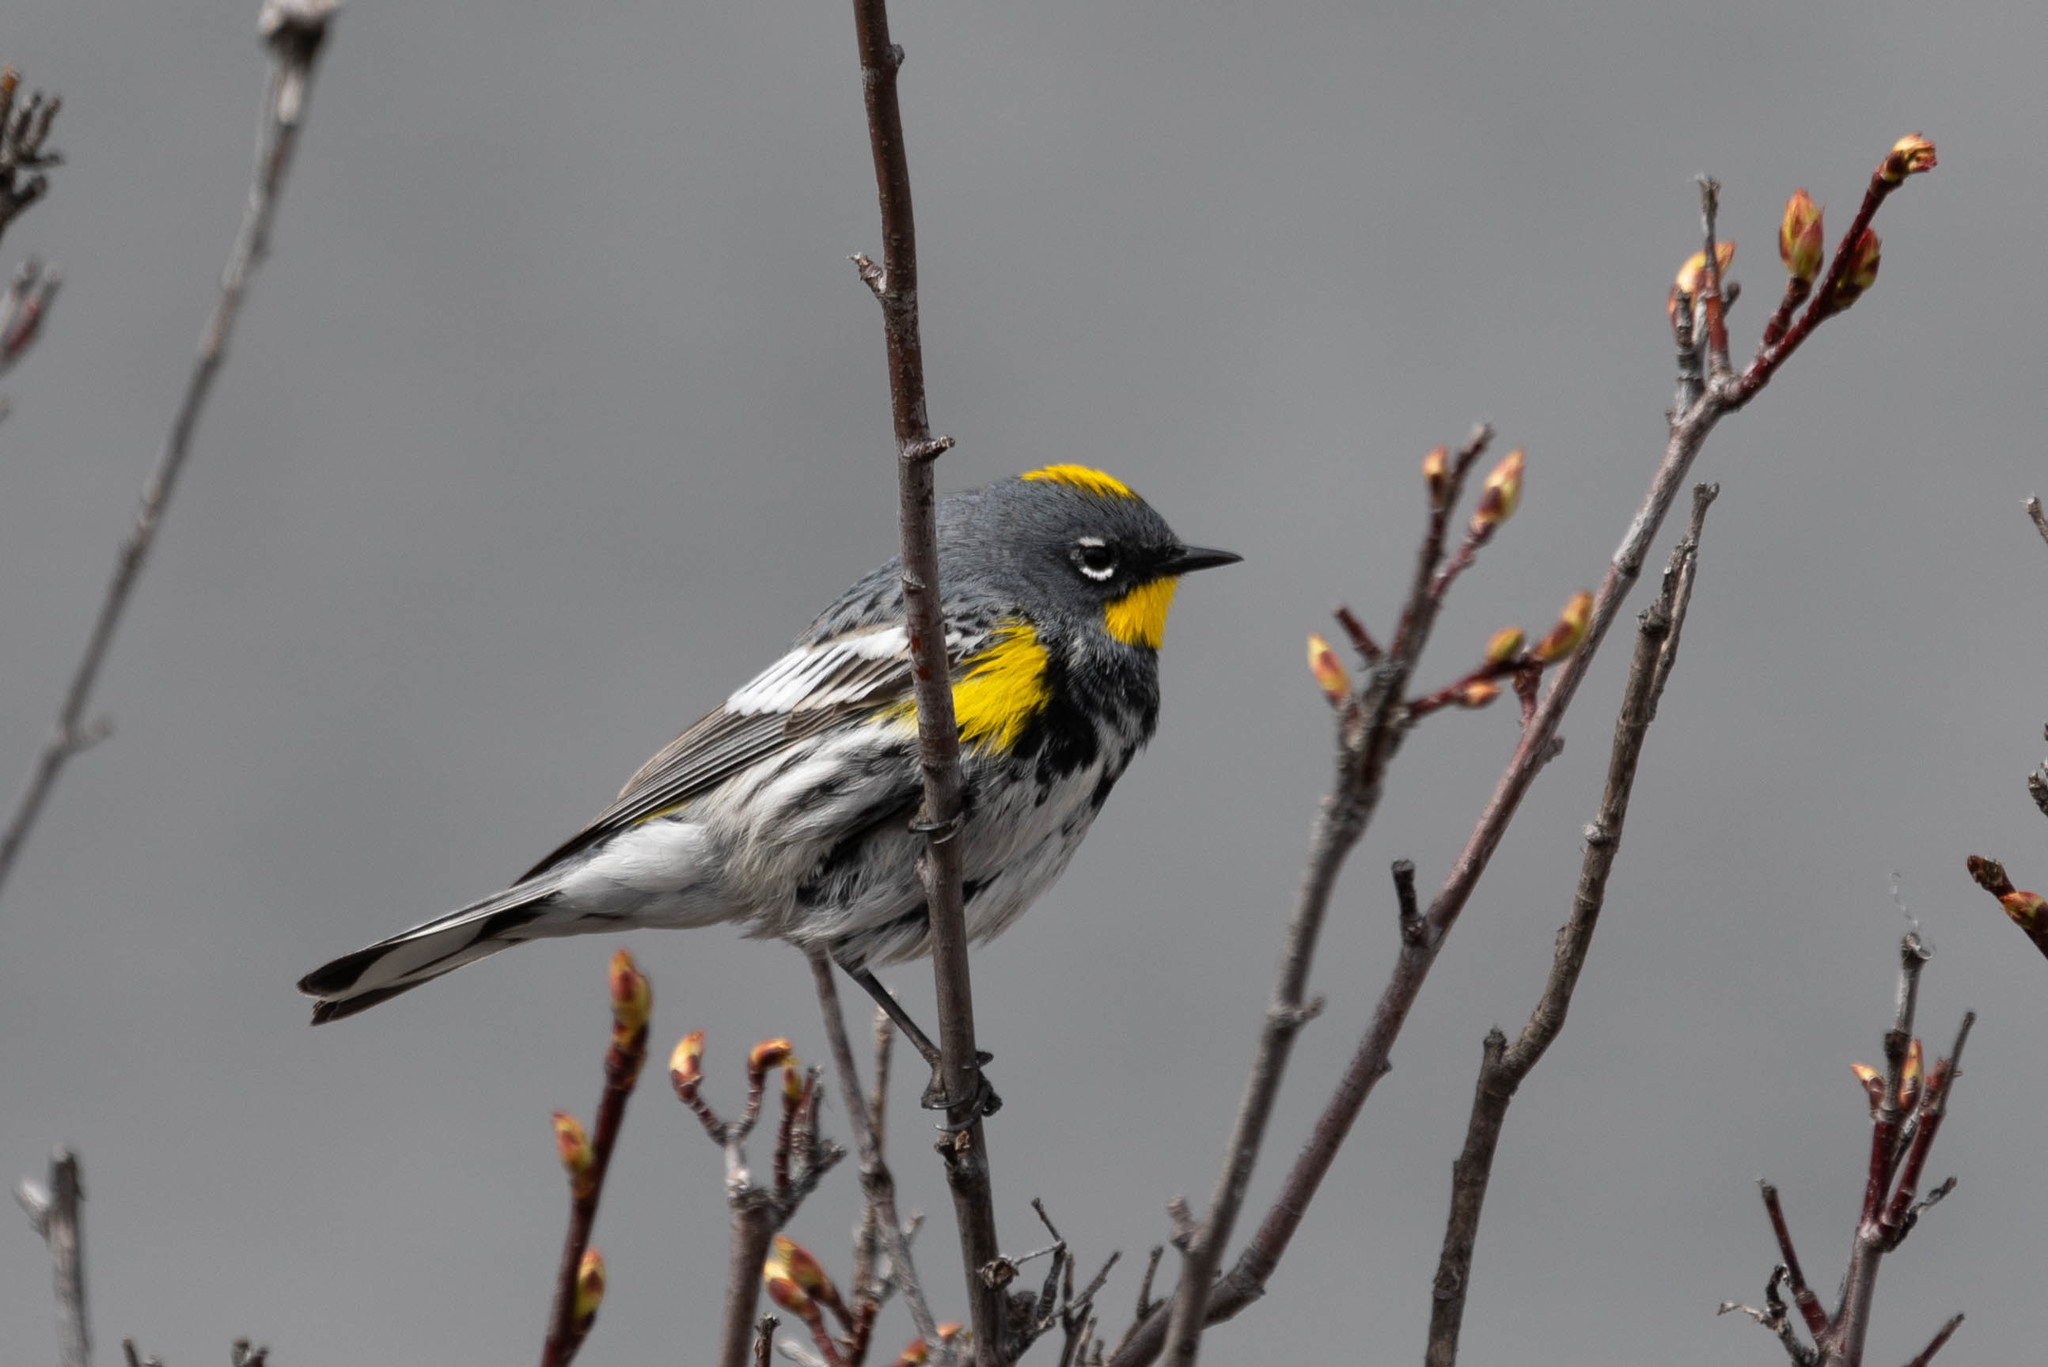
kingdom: Animalia
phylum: Chordata
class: Aves
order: Passeriformes
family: Parulidae
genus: Setophaga
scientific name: Setophaga auduboni
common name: Audubon's warbler
